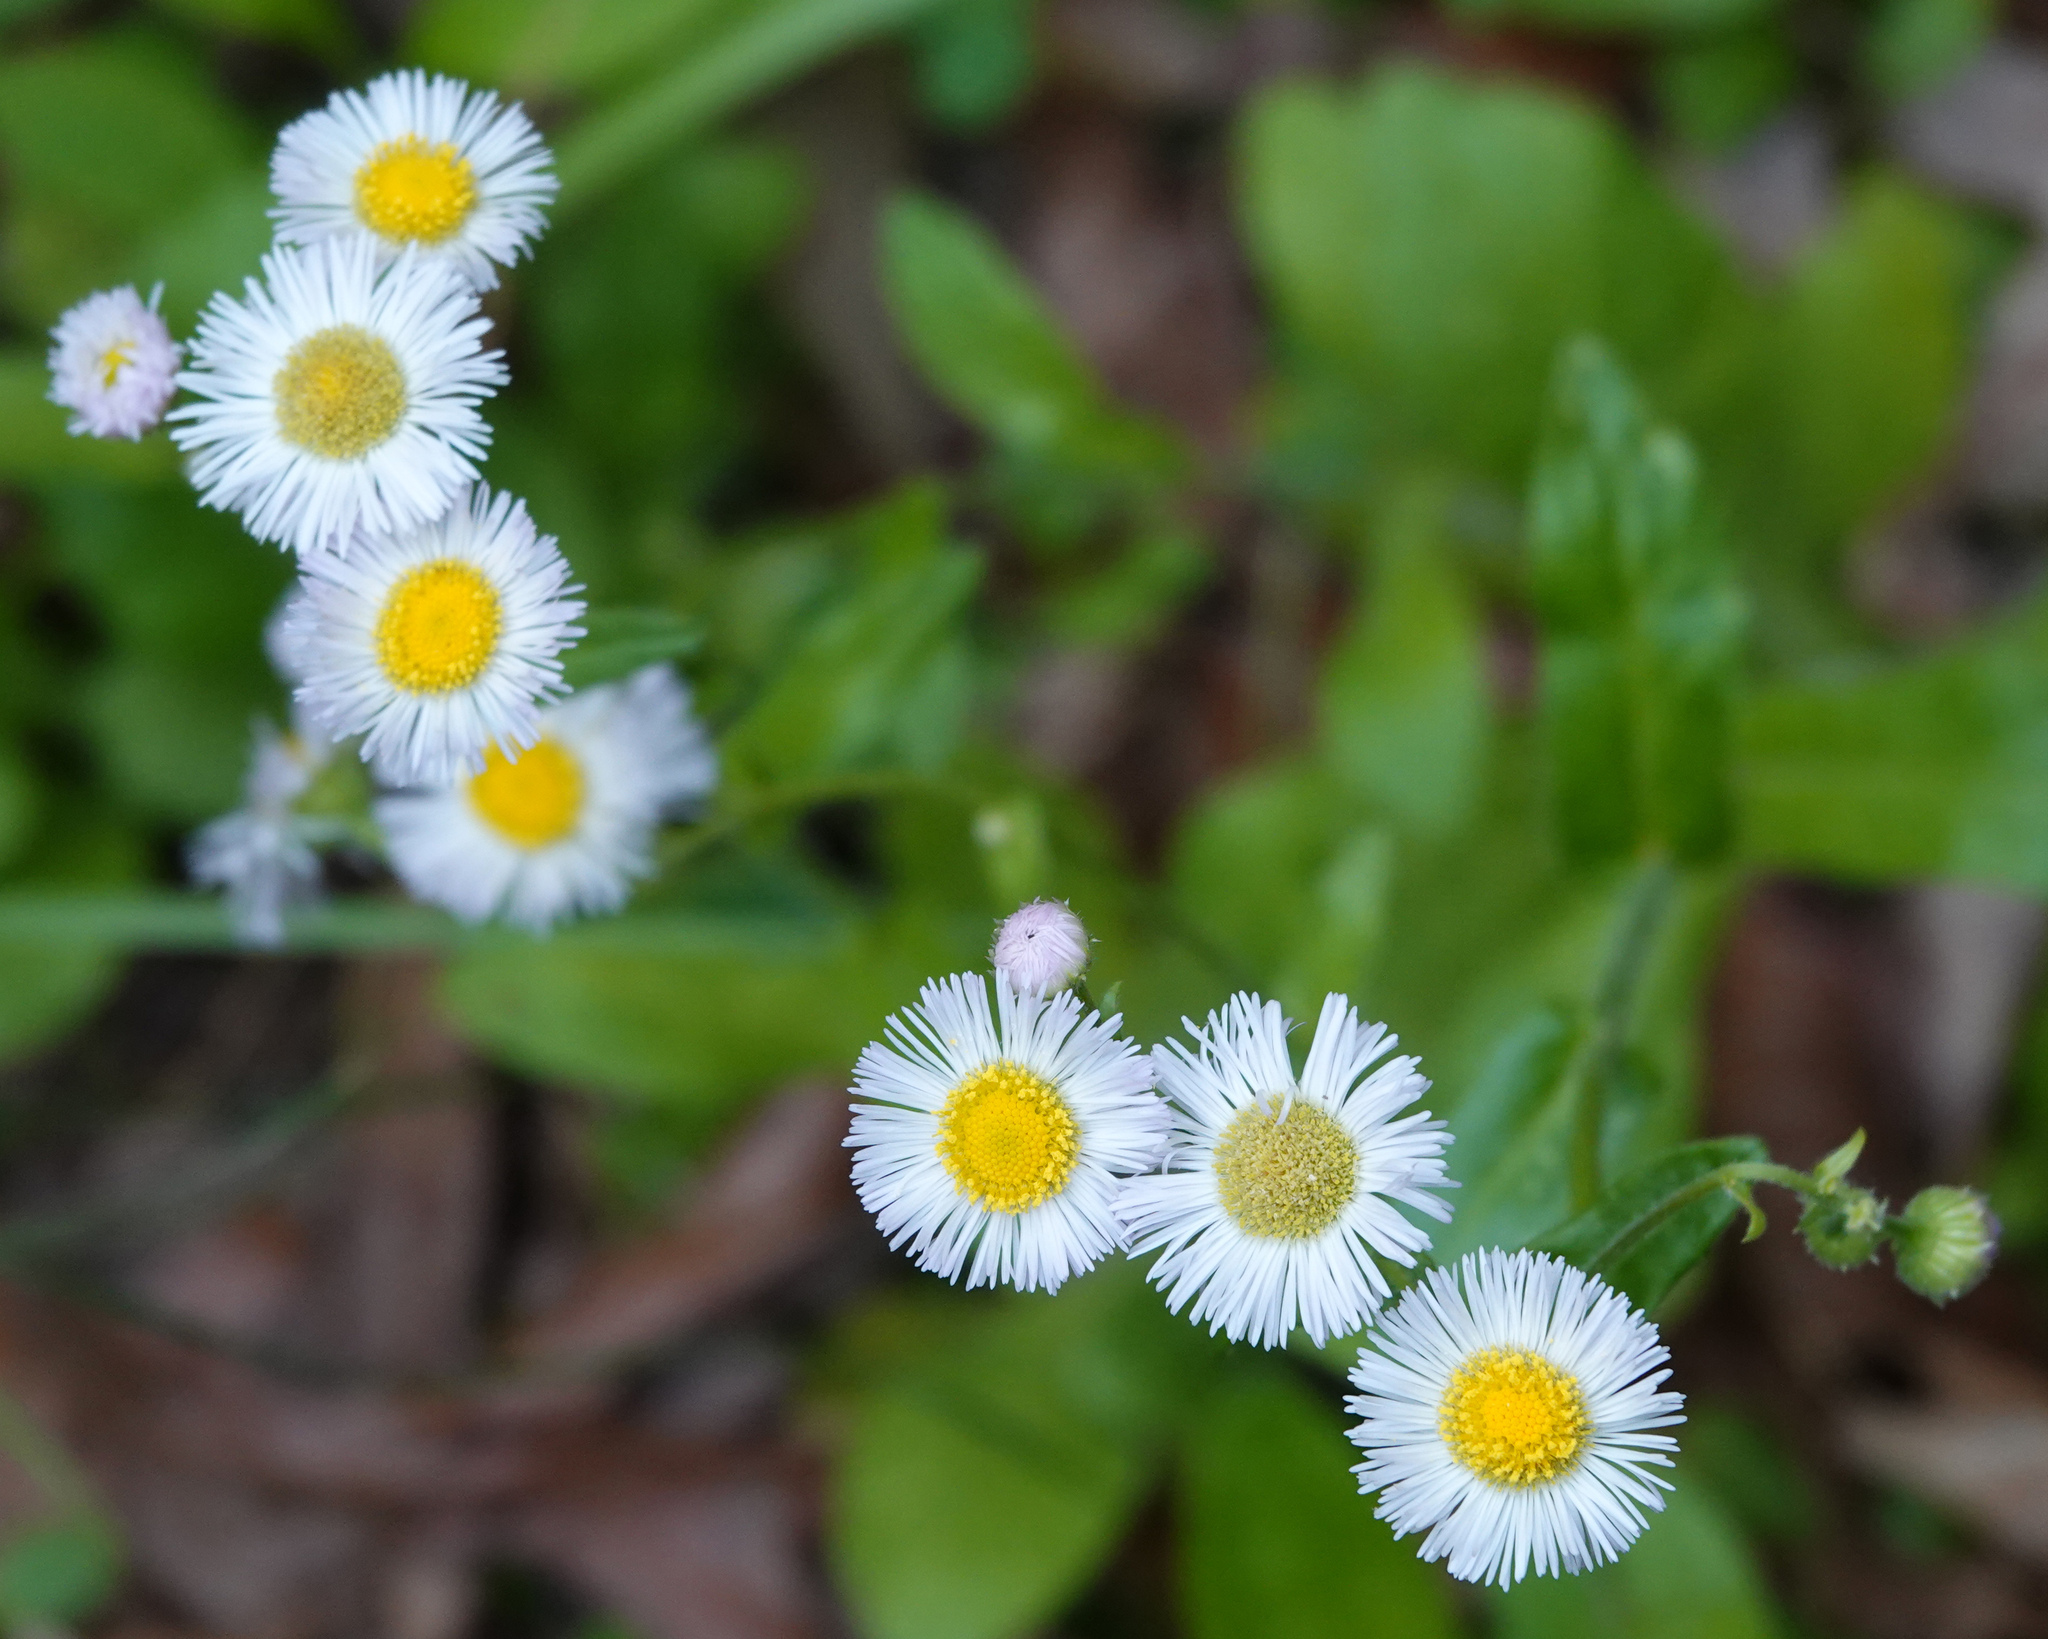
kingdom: Plantae
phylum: Tracheophyta
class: Magnoliopsida
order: Asterales
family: Asteraceae
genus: Erigeron
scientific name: Erigeron philadelphicus
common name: Robin's-plantain
